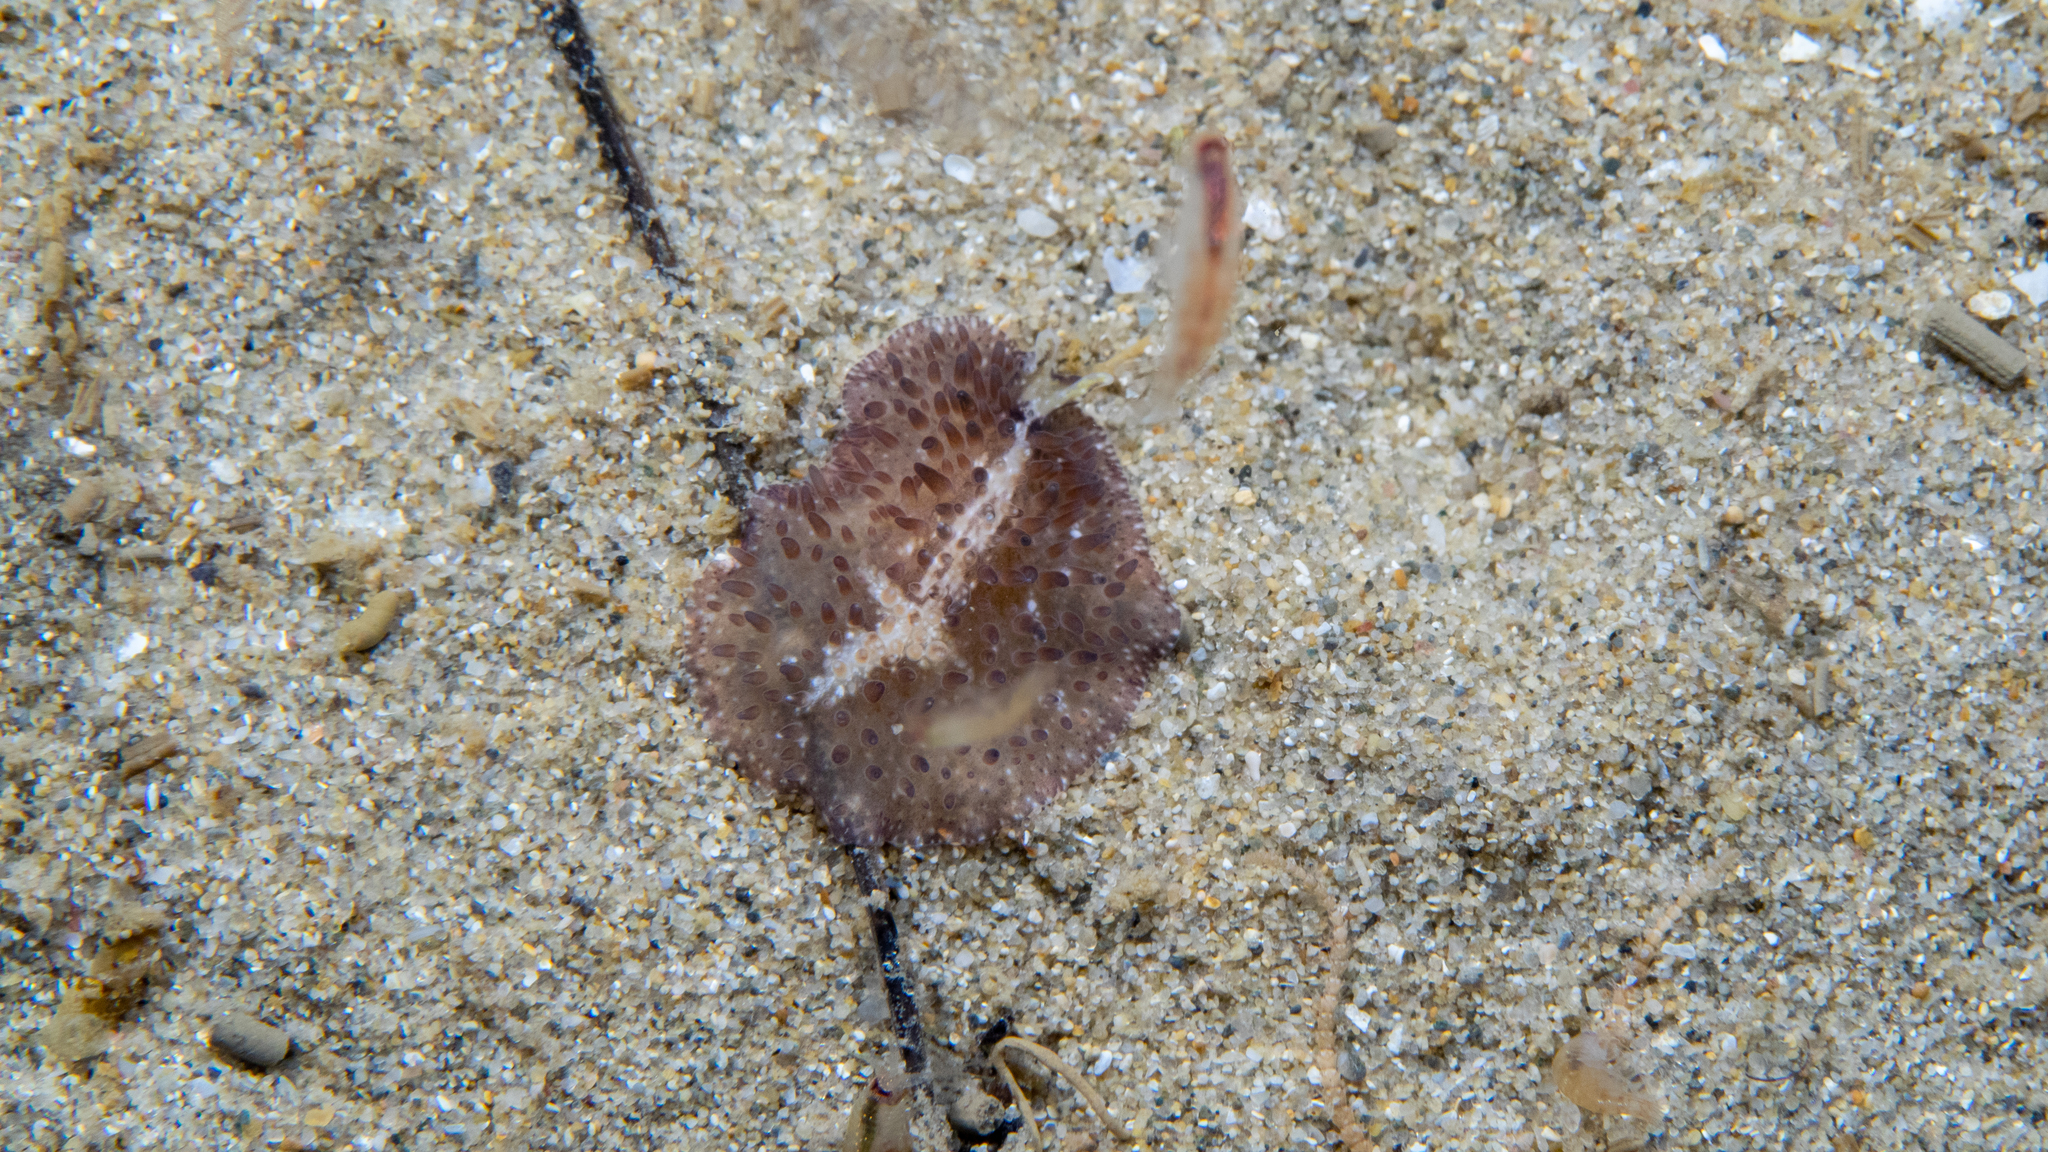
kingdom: Animalia
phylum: Platyhelminthes
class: Turbellaria
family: Pseudocerotidae
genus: Thysanozoon
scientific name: Thysanozoon brocchii
